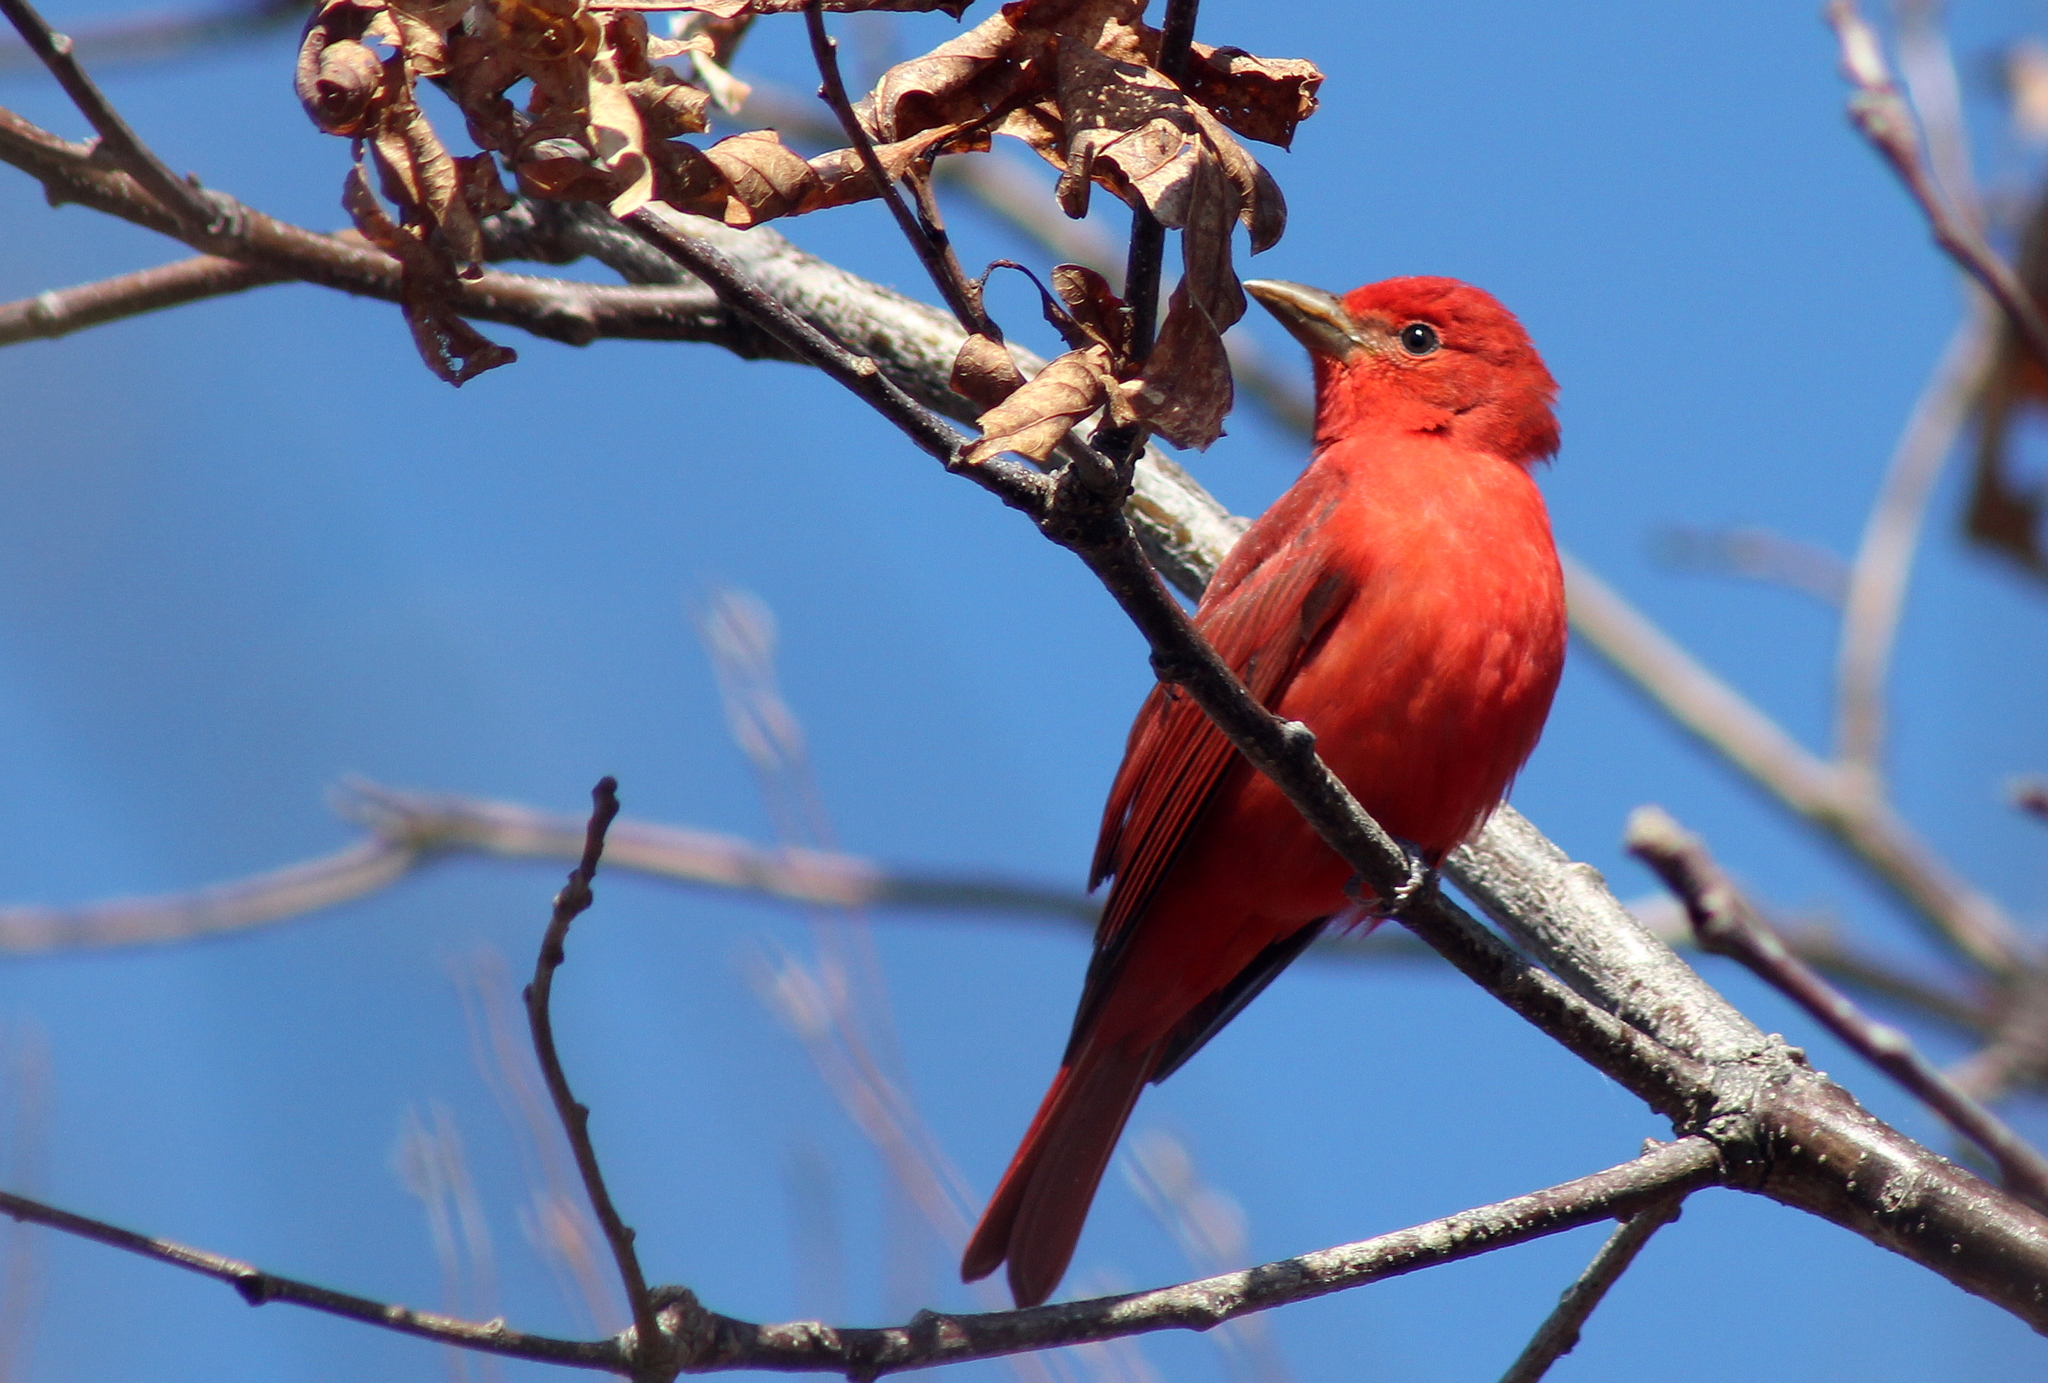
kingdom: Animalia
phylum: Chordata
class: Aves
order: Passeriformes
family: Cardinalidae
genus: Piranga
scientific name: Piranga rubra
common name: Summer tanager
